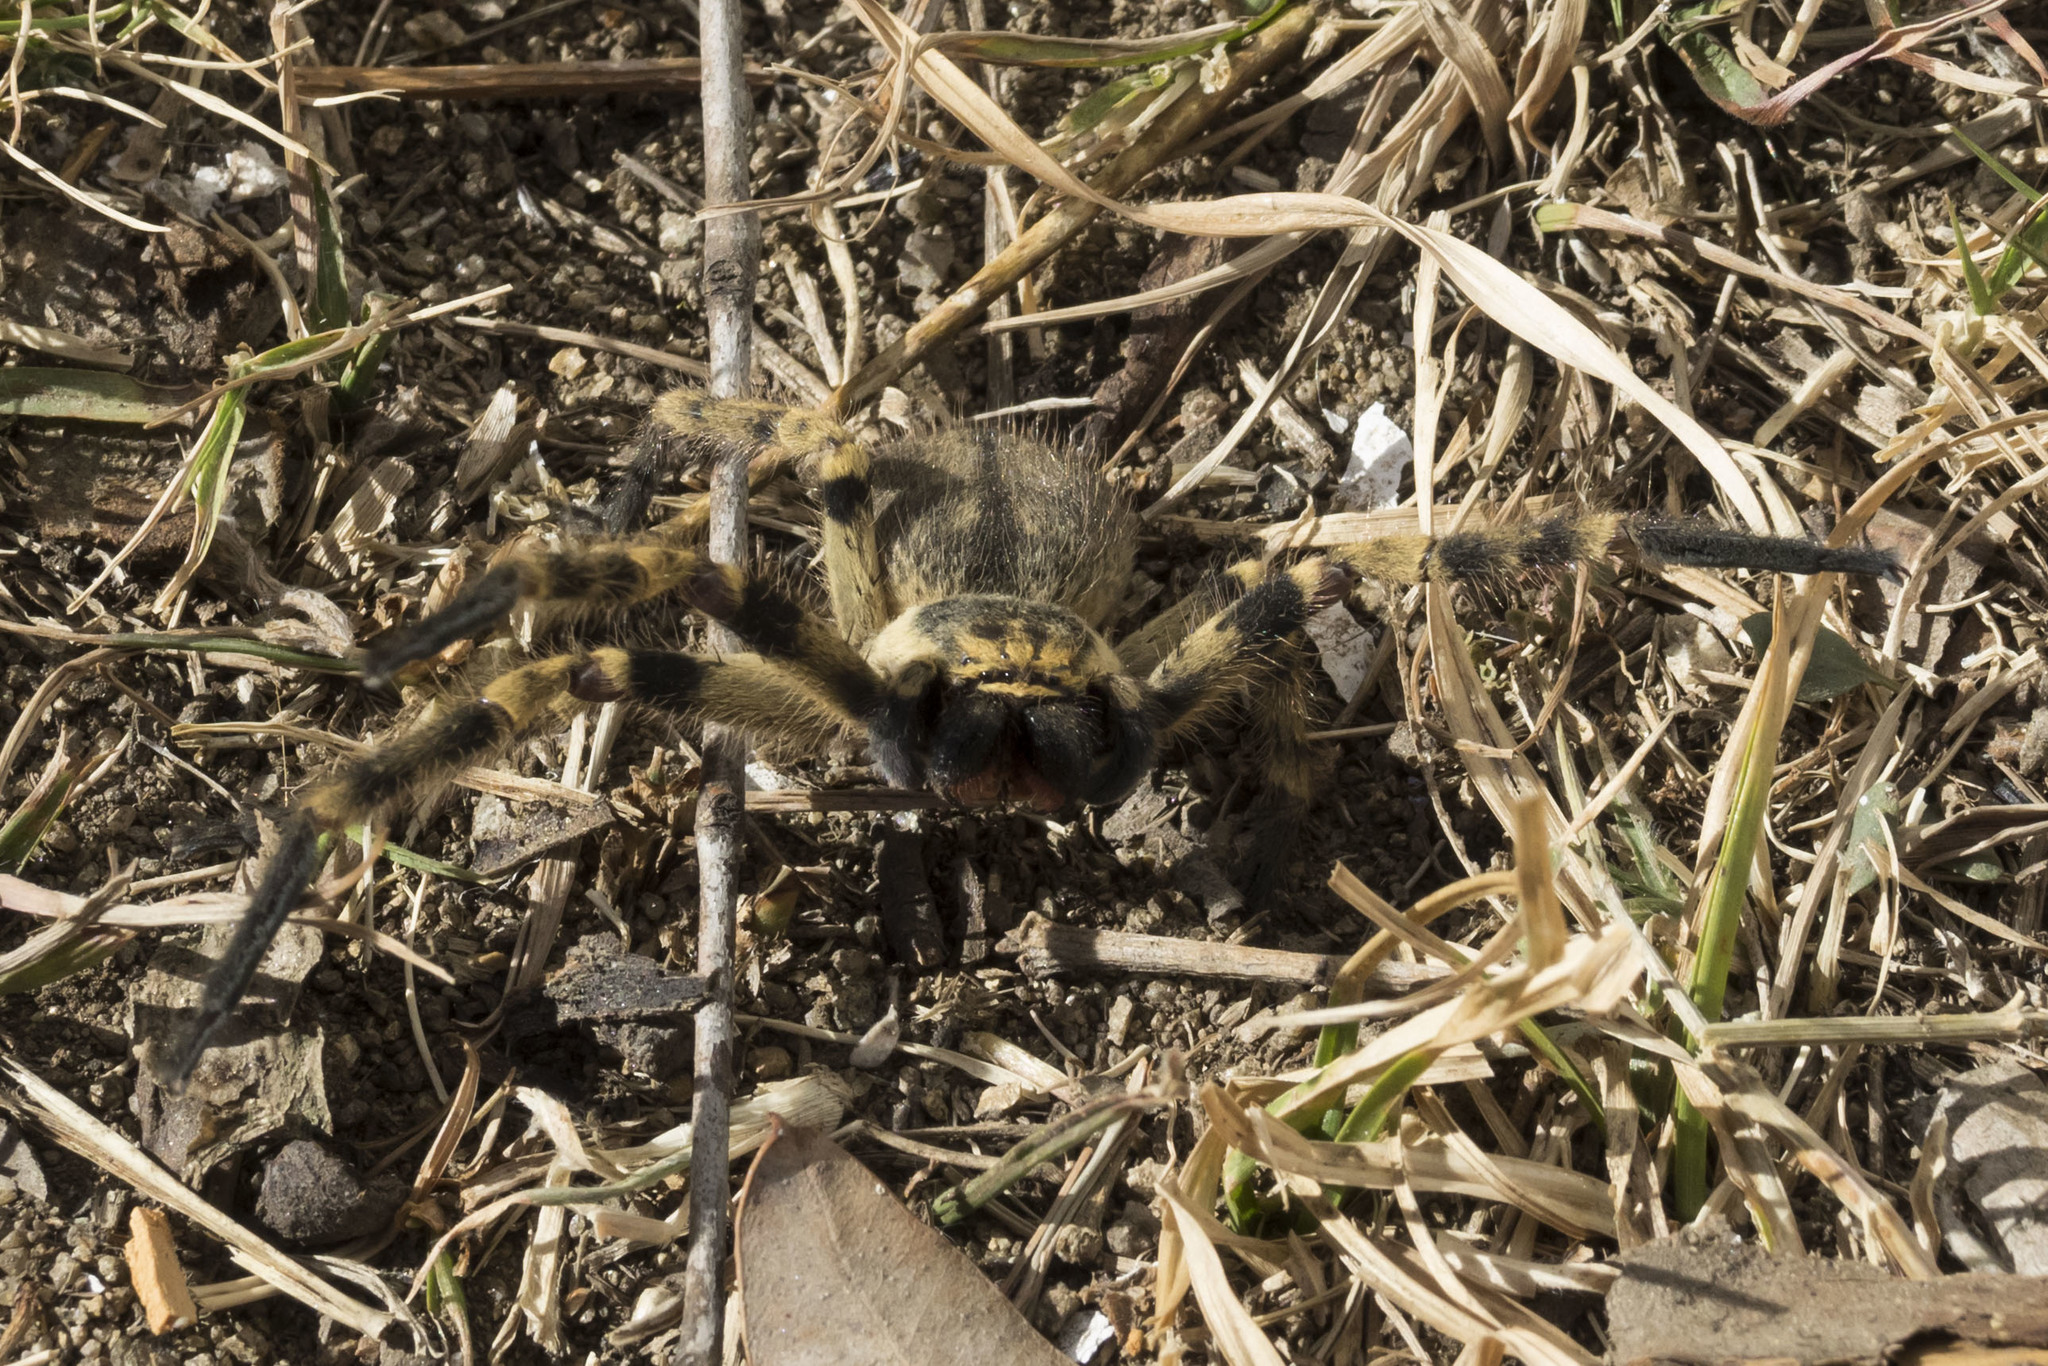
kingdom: Animalia
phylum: Arthropoda
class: Arachnida
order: Araneae
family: Sparassidae
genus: Polybetes
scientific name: Polybetes pythagoricus
